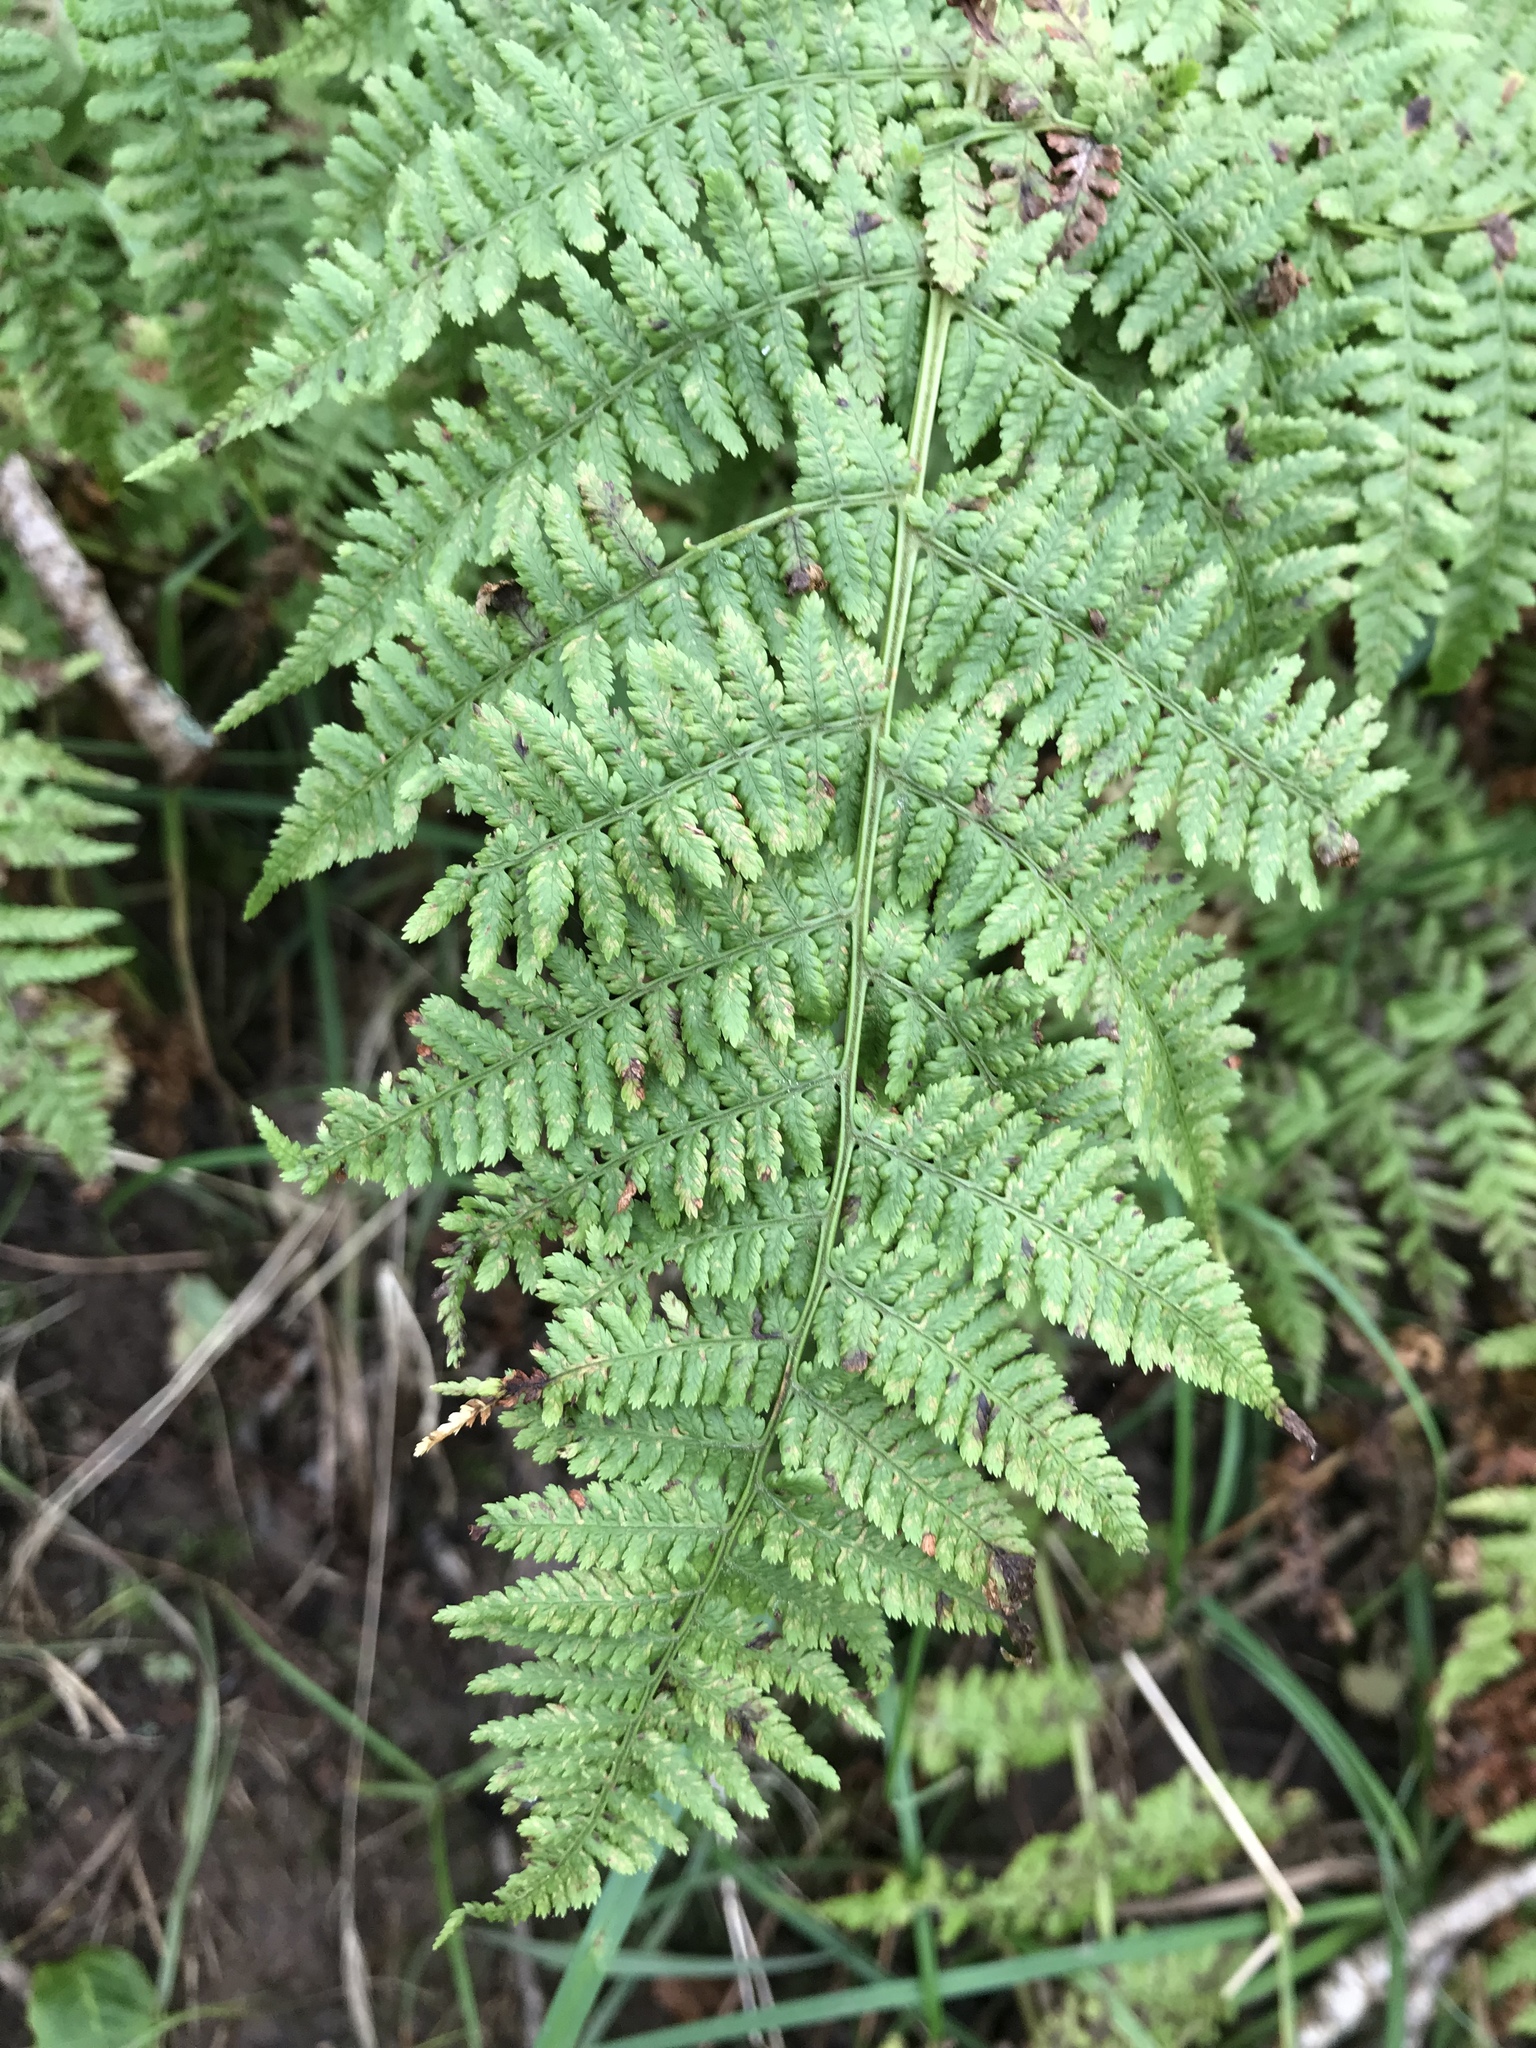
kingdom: Plantae
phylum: Tracheophyta
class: Polypodiopsida
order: Polypodiales
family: Athyriaceae
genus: Athyrium
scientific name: Athyrium filix-femina
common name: Lady fern
